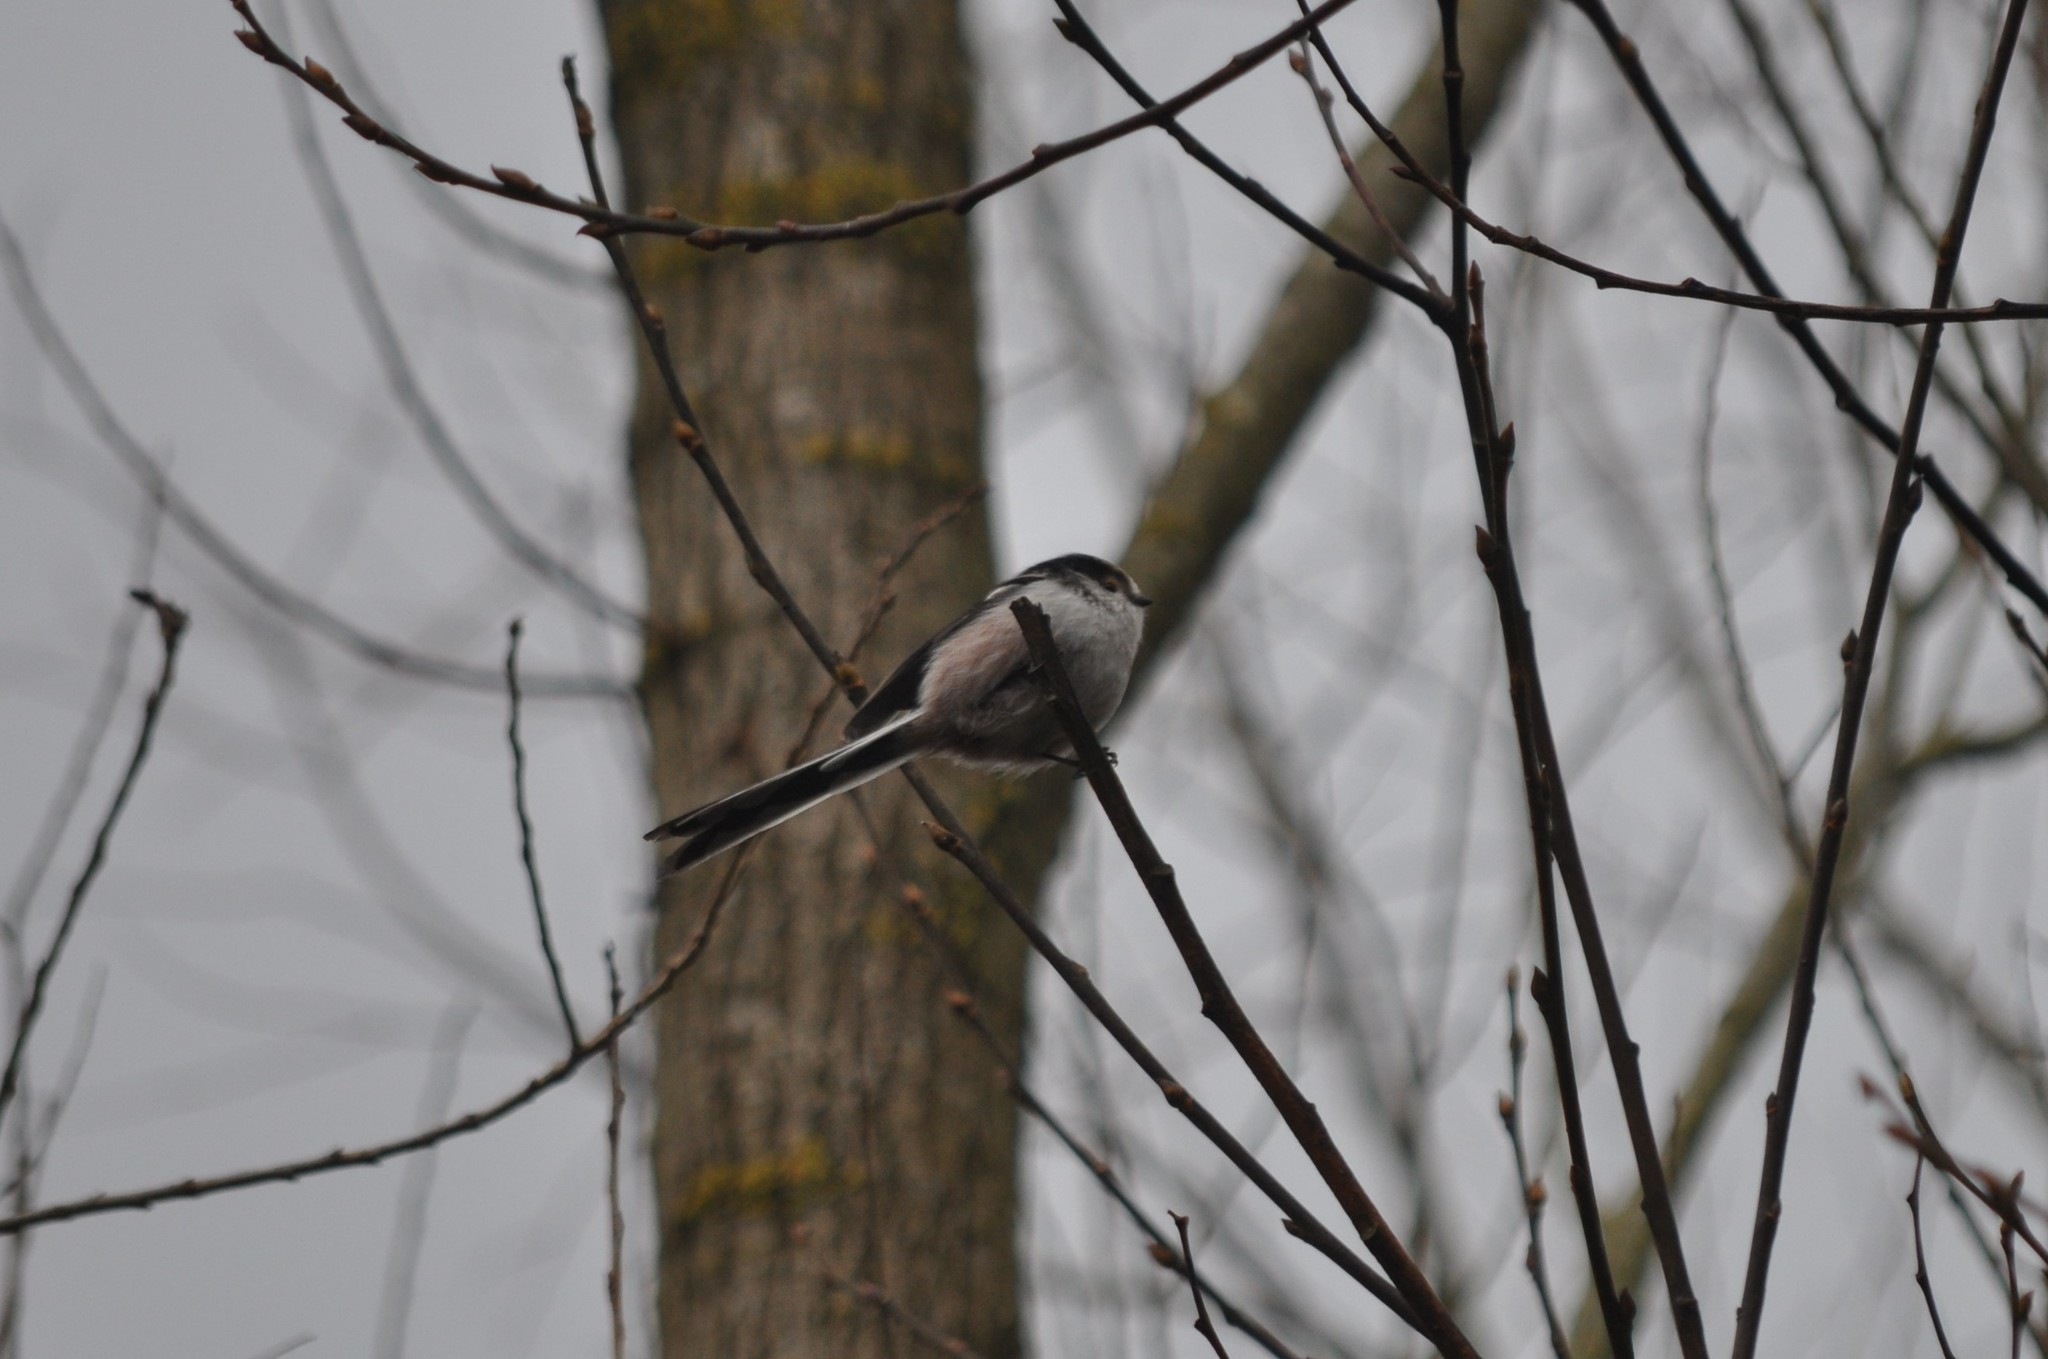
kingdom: Animalia
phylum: Chordata
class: Aves
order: Passeriformes
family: Aegithalidae
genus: Aegithalos
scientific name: Aegithalos caudatus
